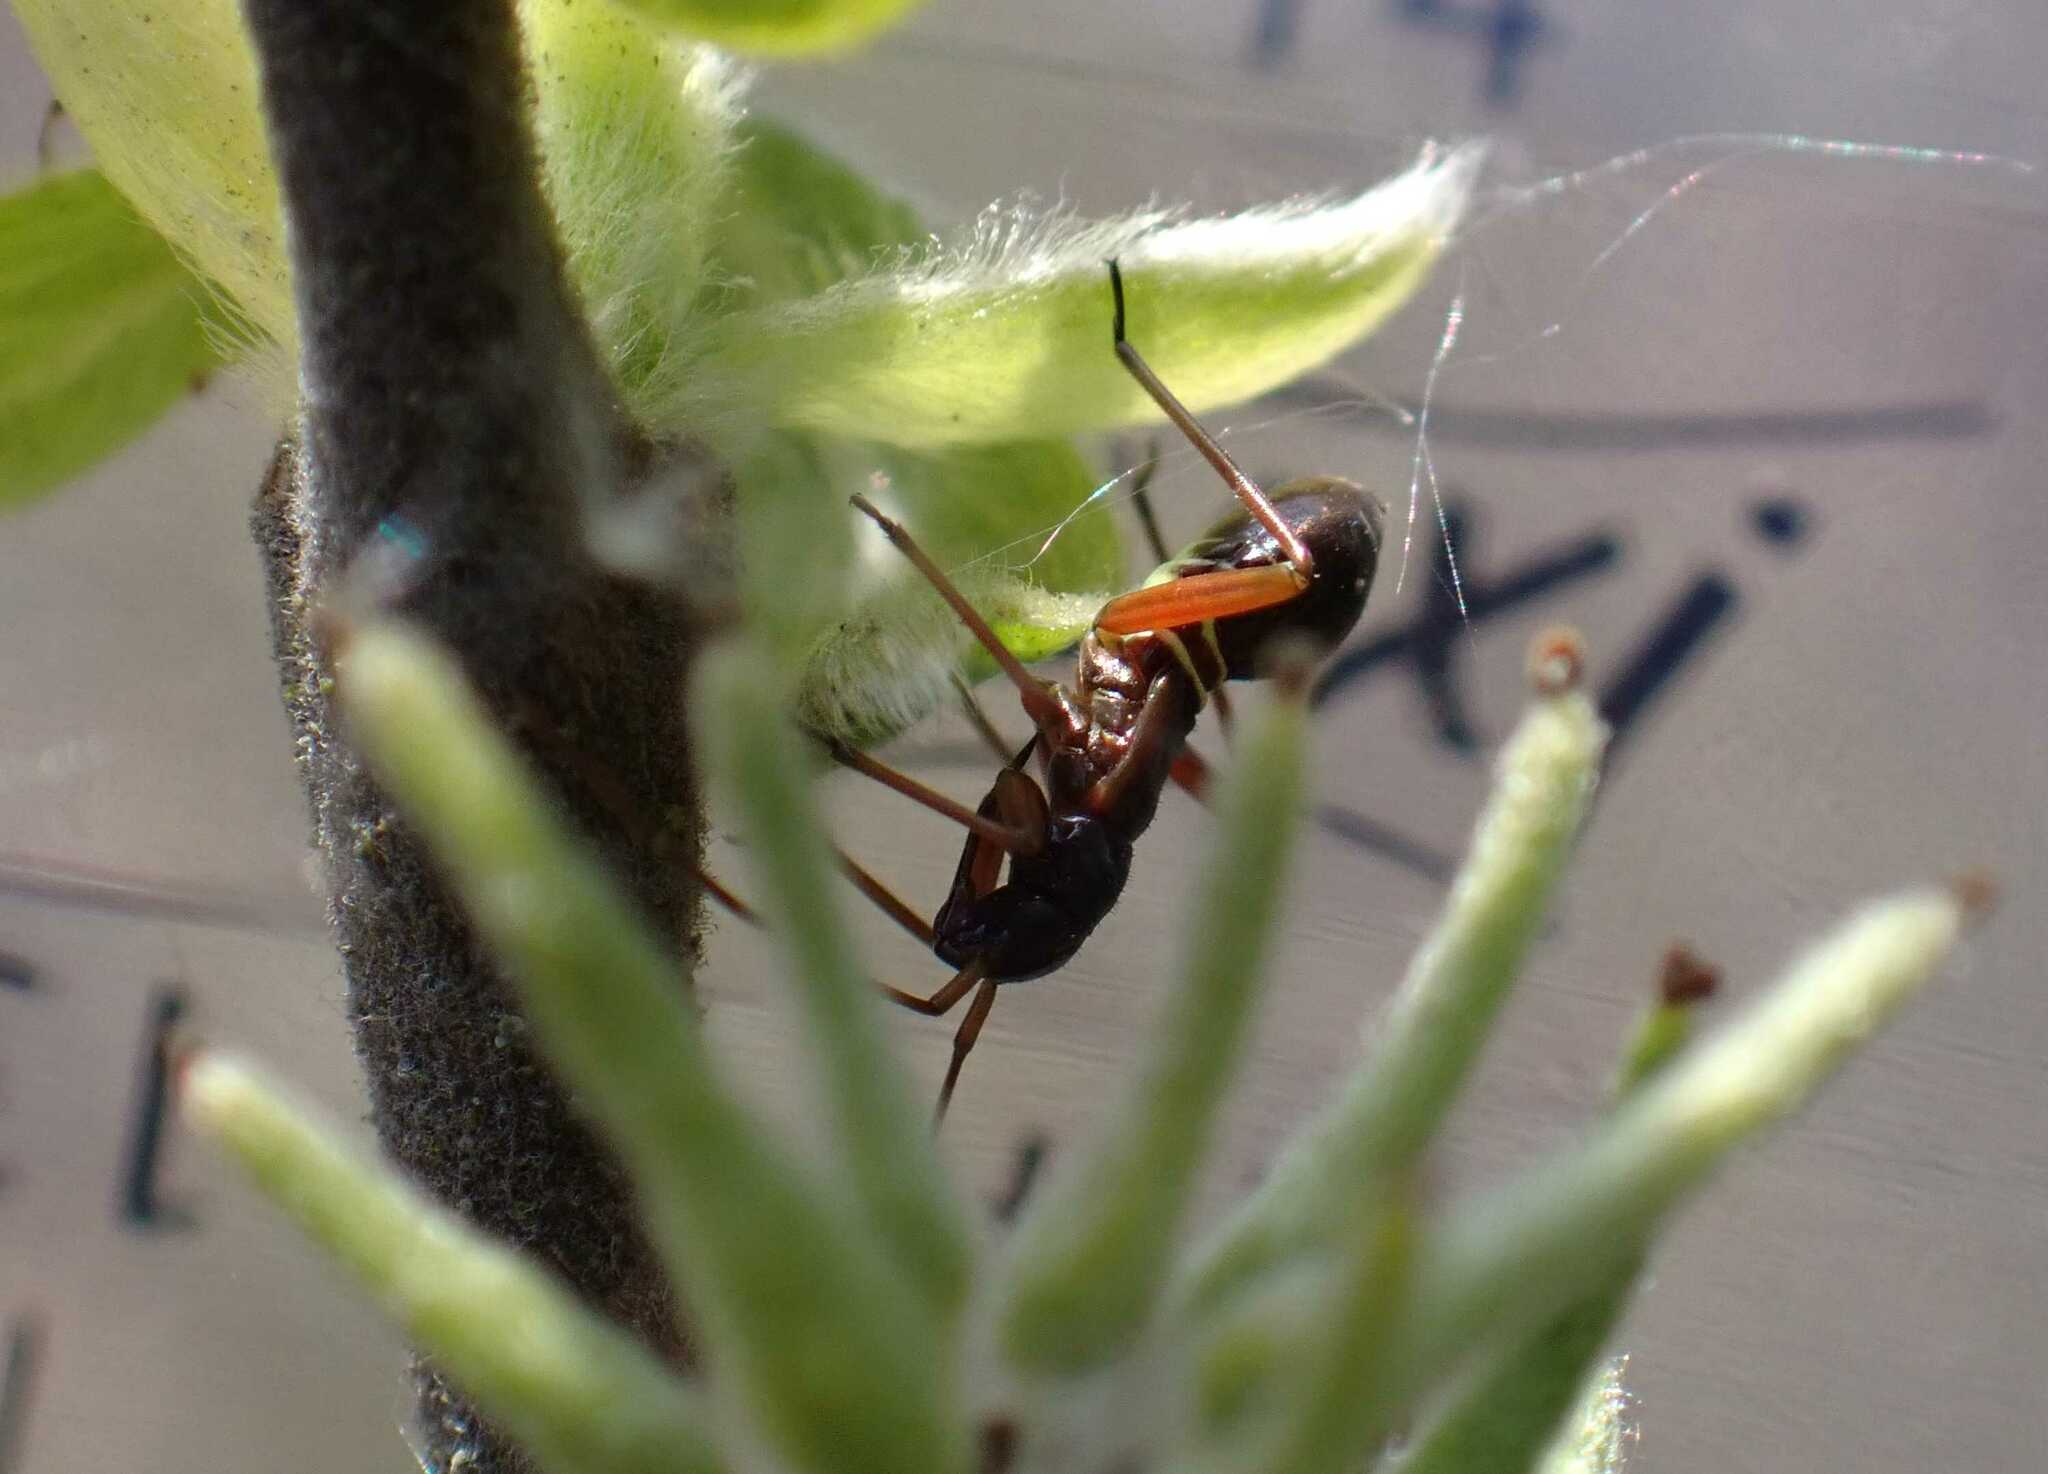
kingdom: Animalia
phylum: Arthropoda
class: Insecta
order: Hemiptera
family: Miridae
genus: Miris
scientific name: Miris striatus
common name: Fine streaked bugkin
